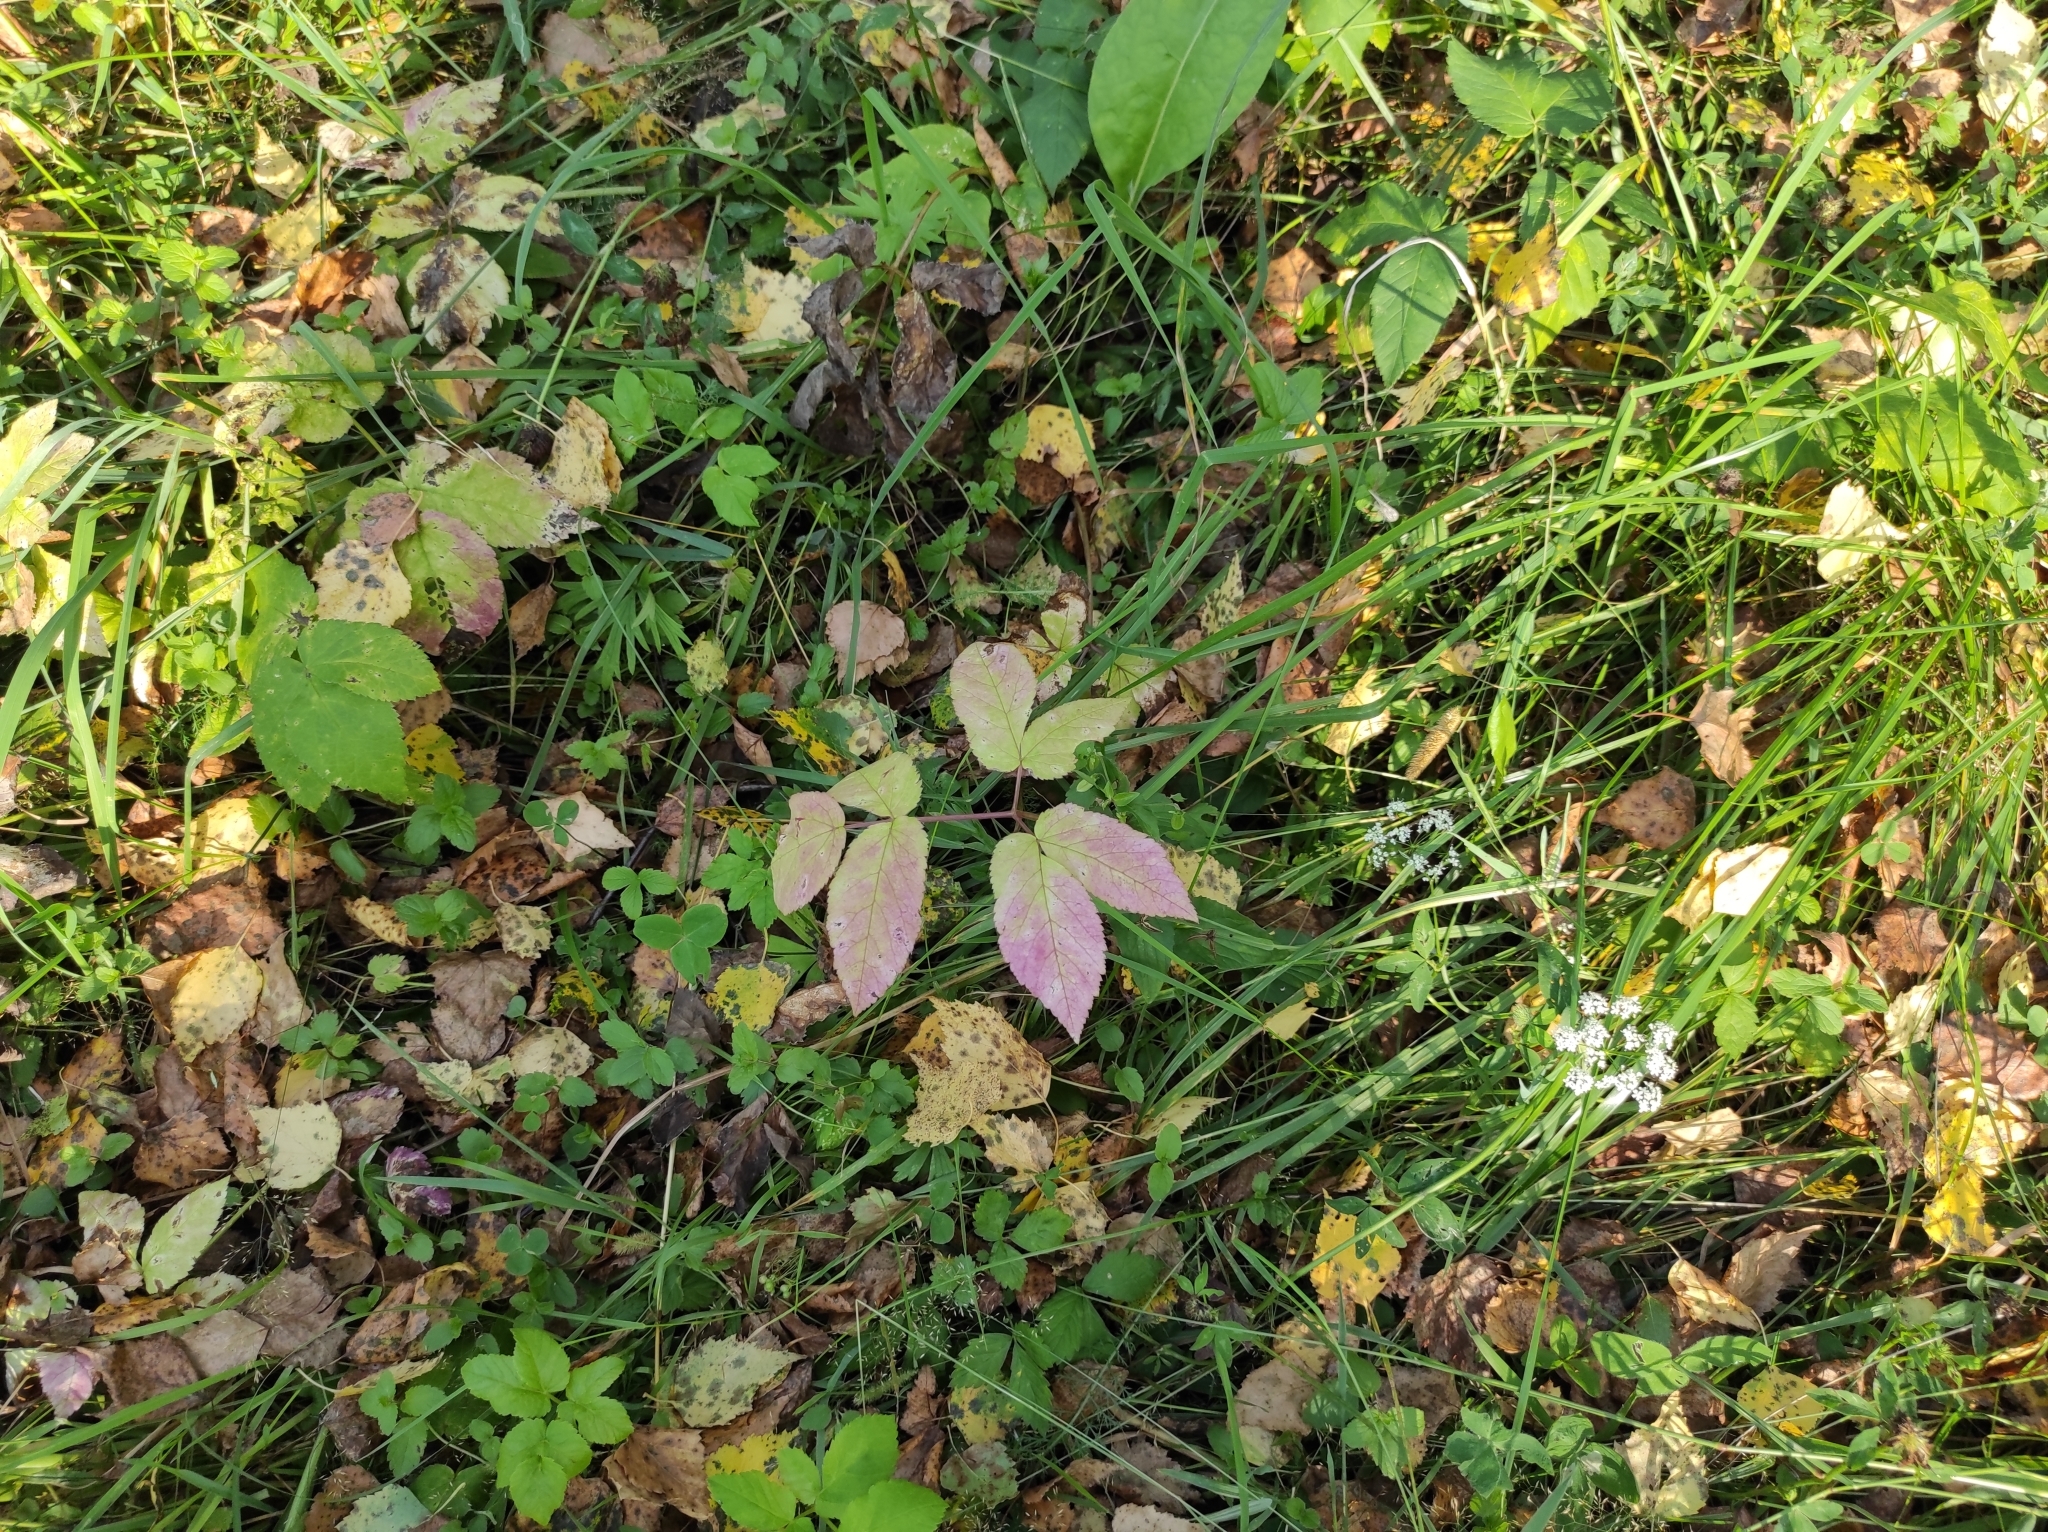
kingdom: Plantae
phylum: Tracheophyta
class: Magnoliopsida
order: Apiales
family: Apiaceae
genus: Aegopodium
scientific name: Aegopodium podagraria
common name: Ground-elder
